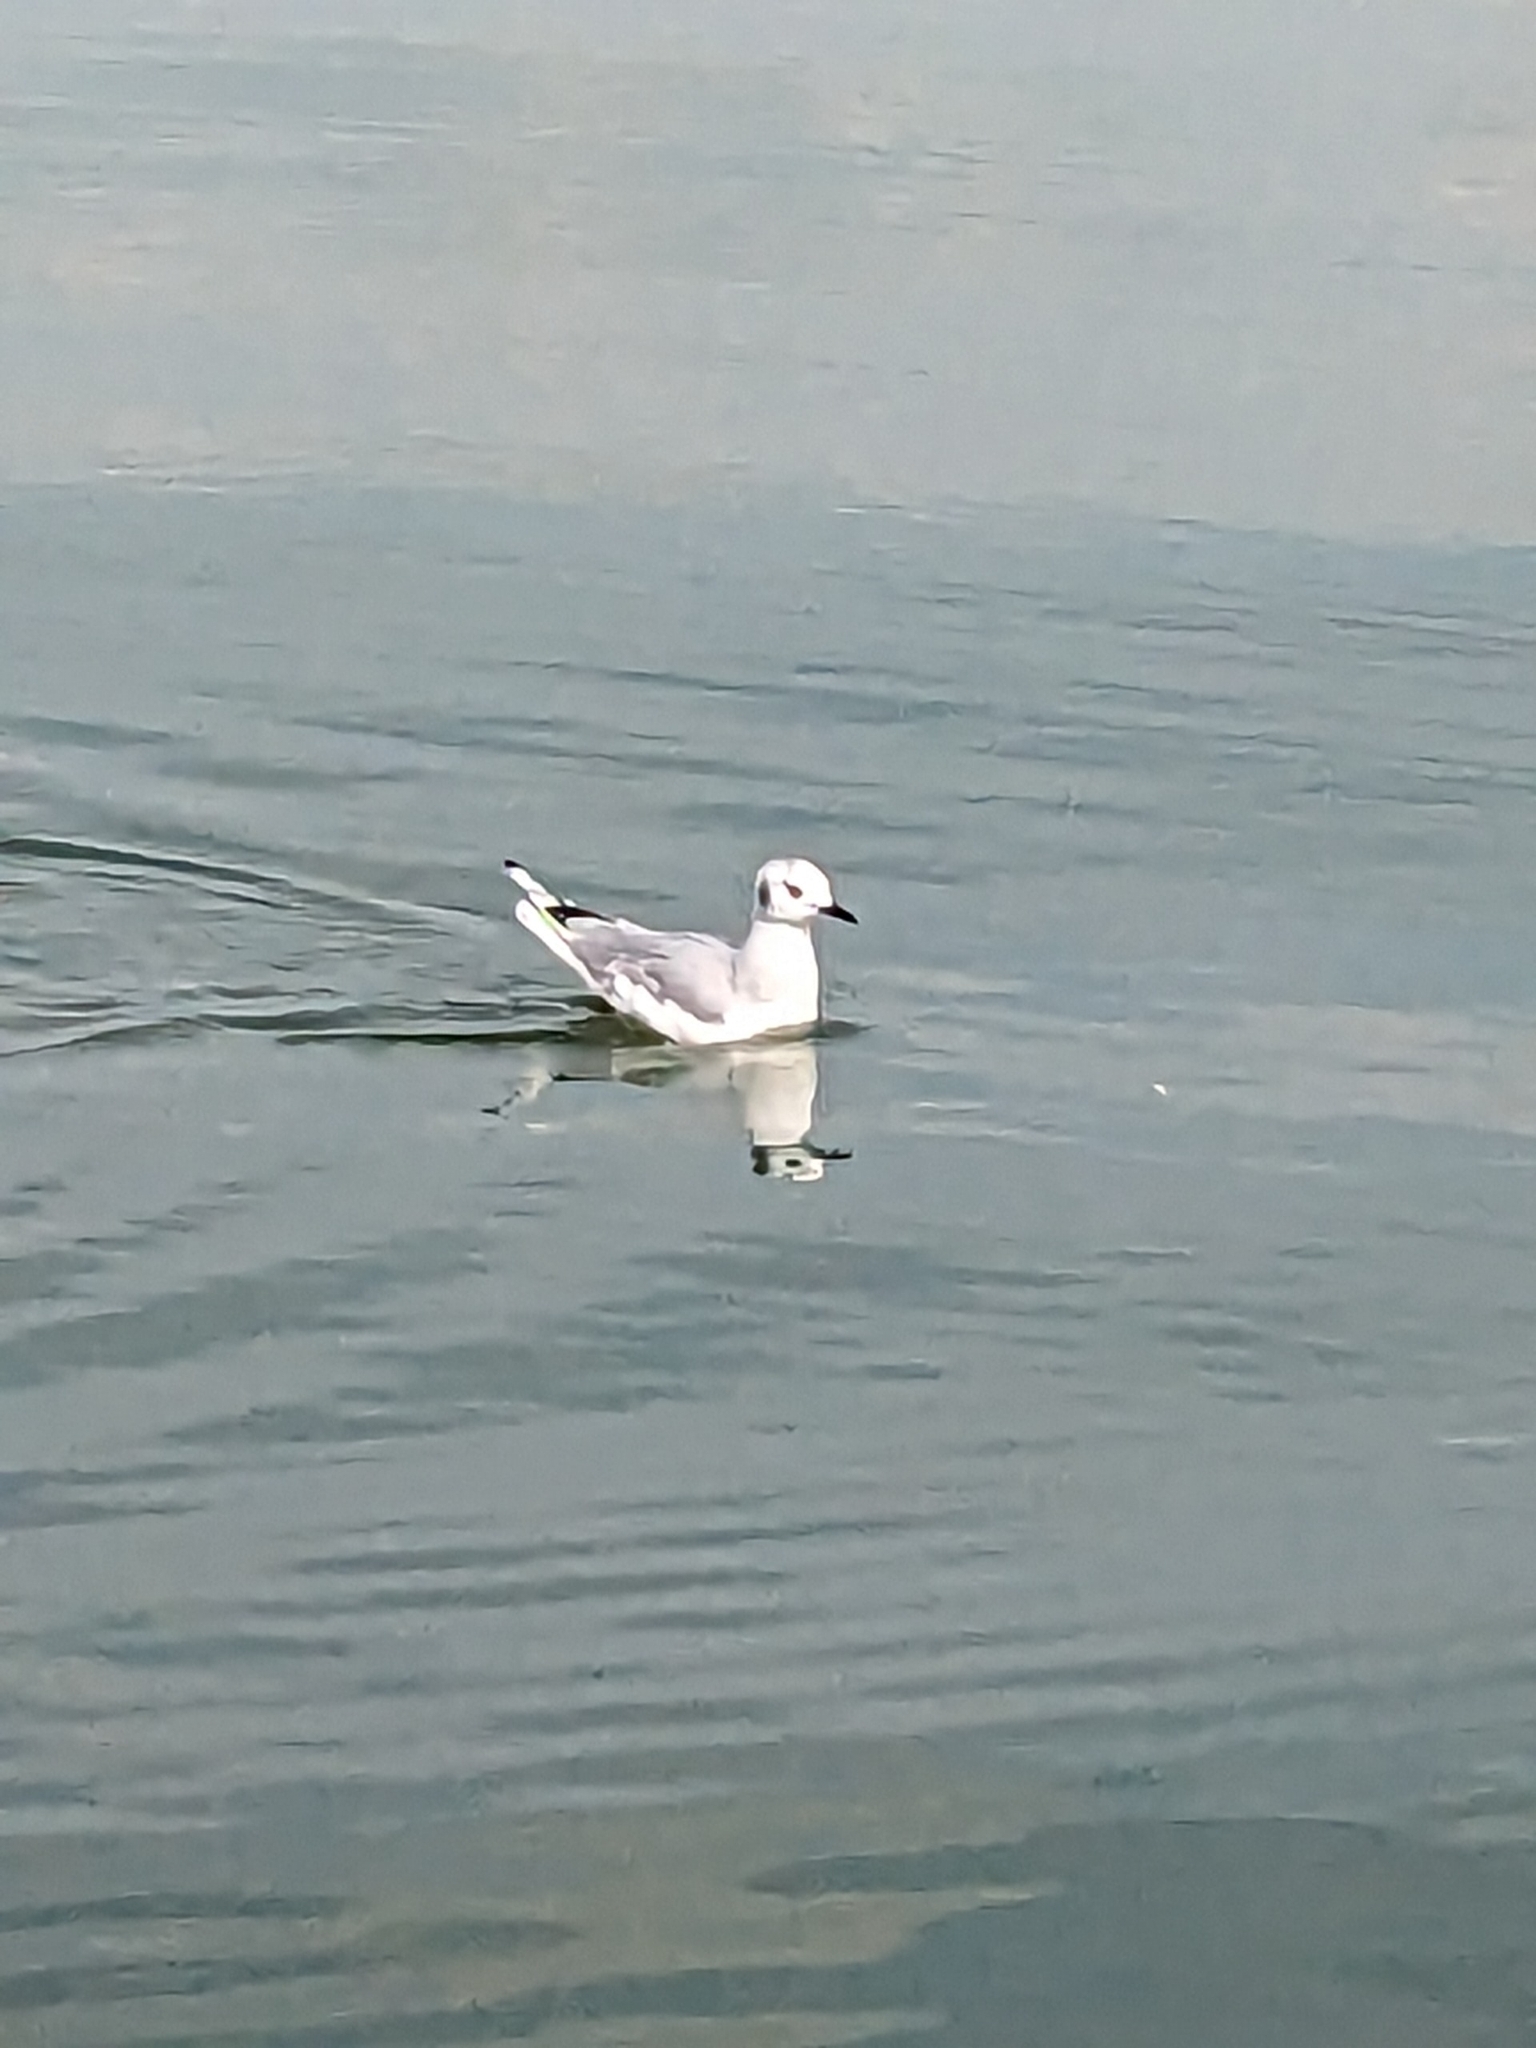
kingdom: Animalia
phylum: Chordata
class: Aves
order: Charadriiformes
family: Laridae
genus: Chroicocephalus
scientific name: Chroicocephalus philadelphia
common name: Bonaparte's gull
